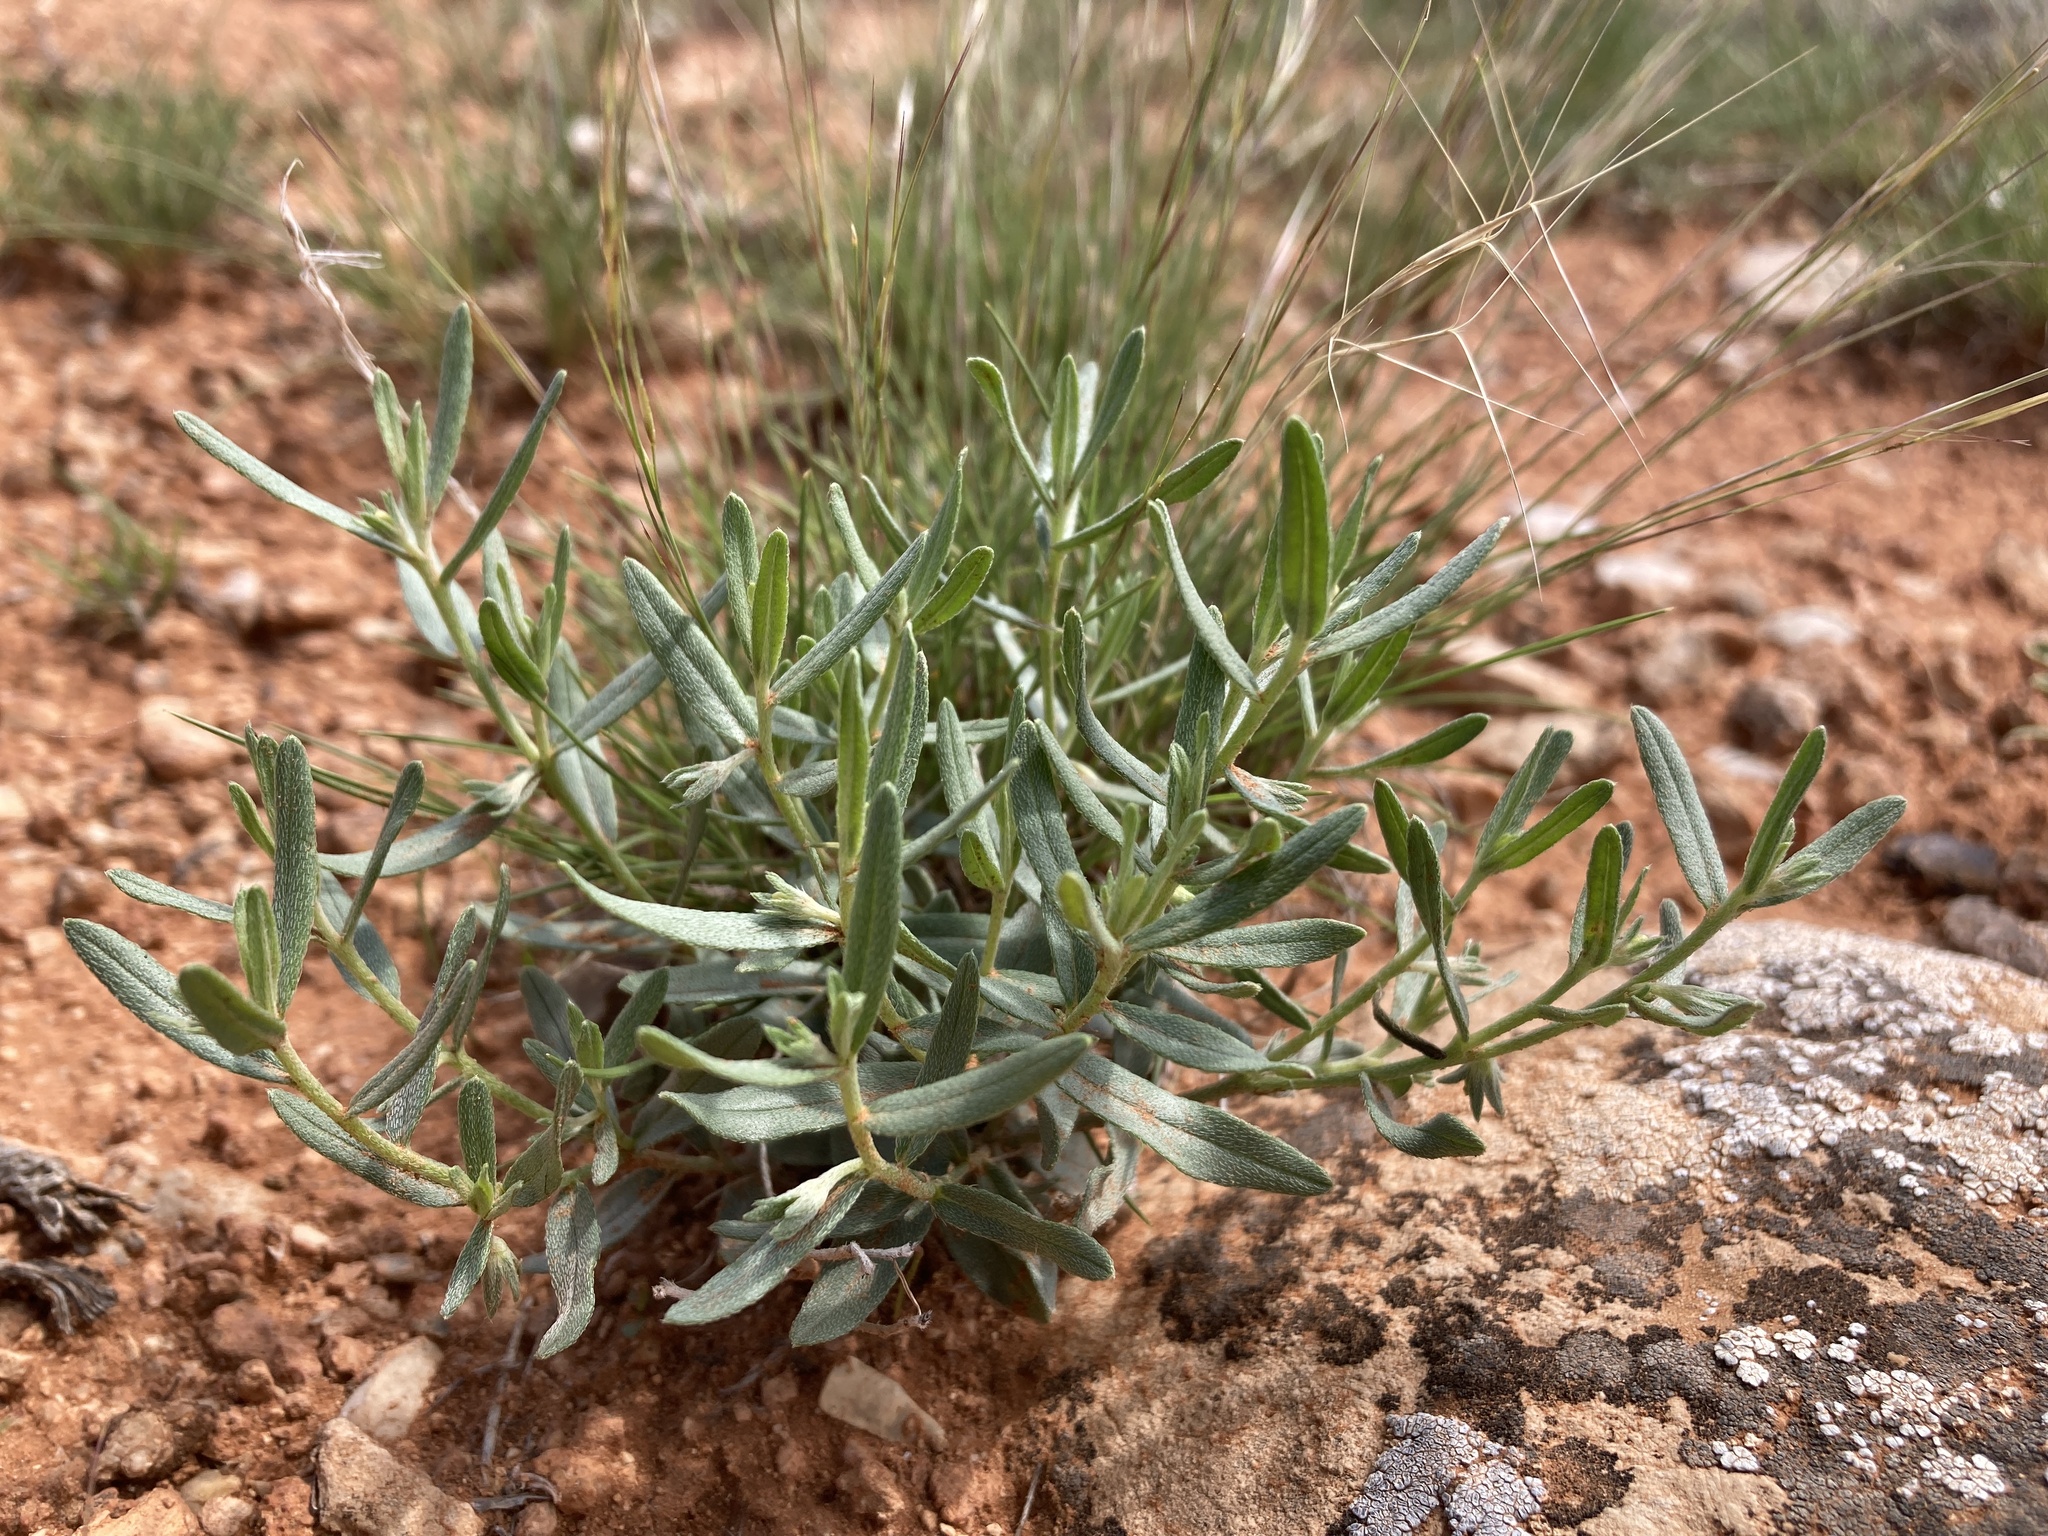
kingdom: Plantae
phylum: Tracheophyta
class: Magnoliopsida
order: Boraginales
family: Boraginaceae
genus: Lithospermum
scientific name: Lithospermum incisum
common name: Fringed gromwell
